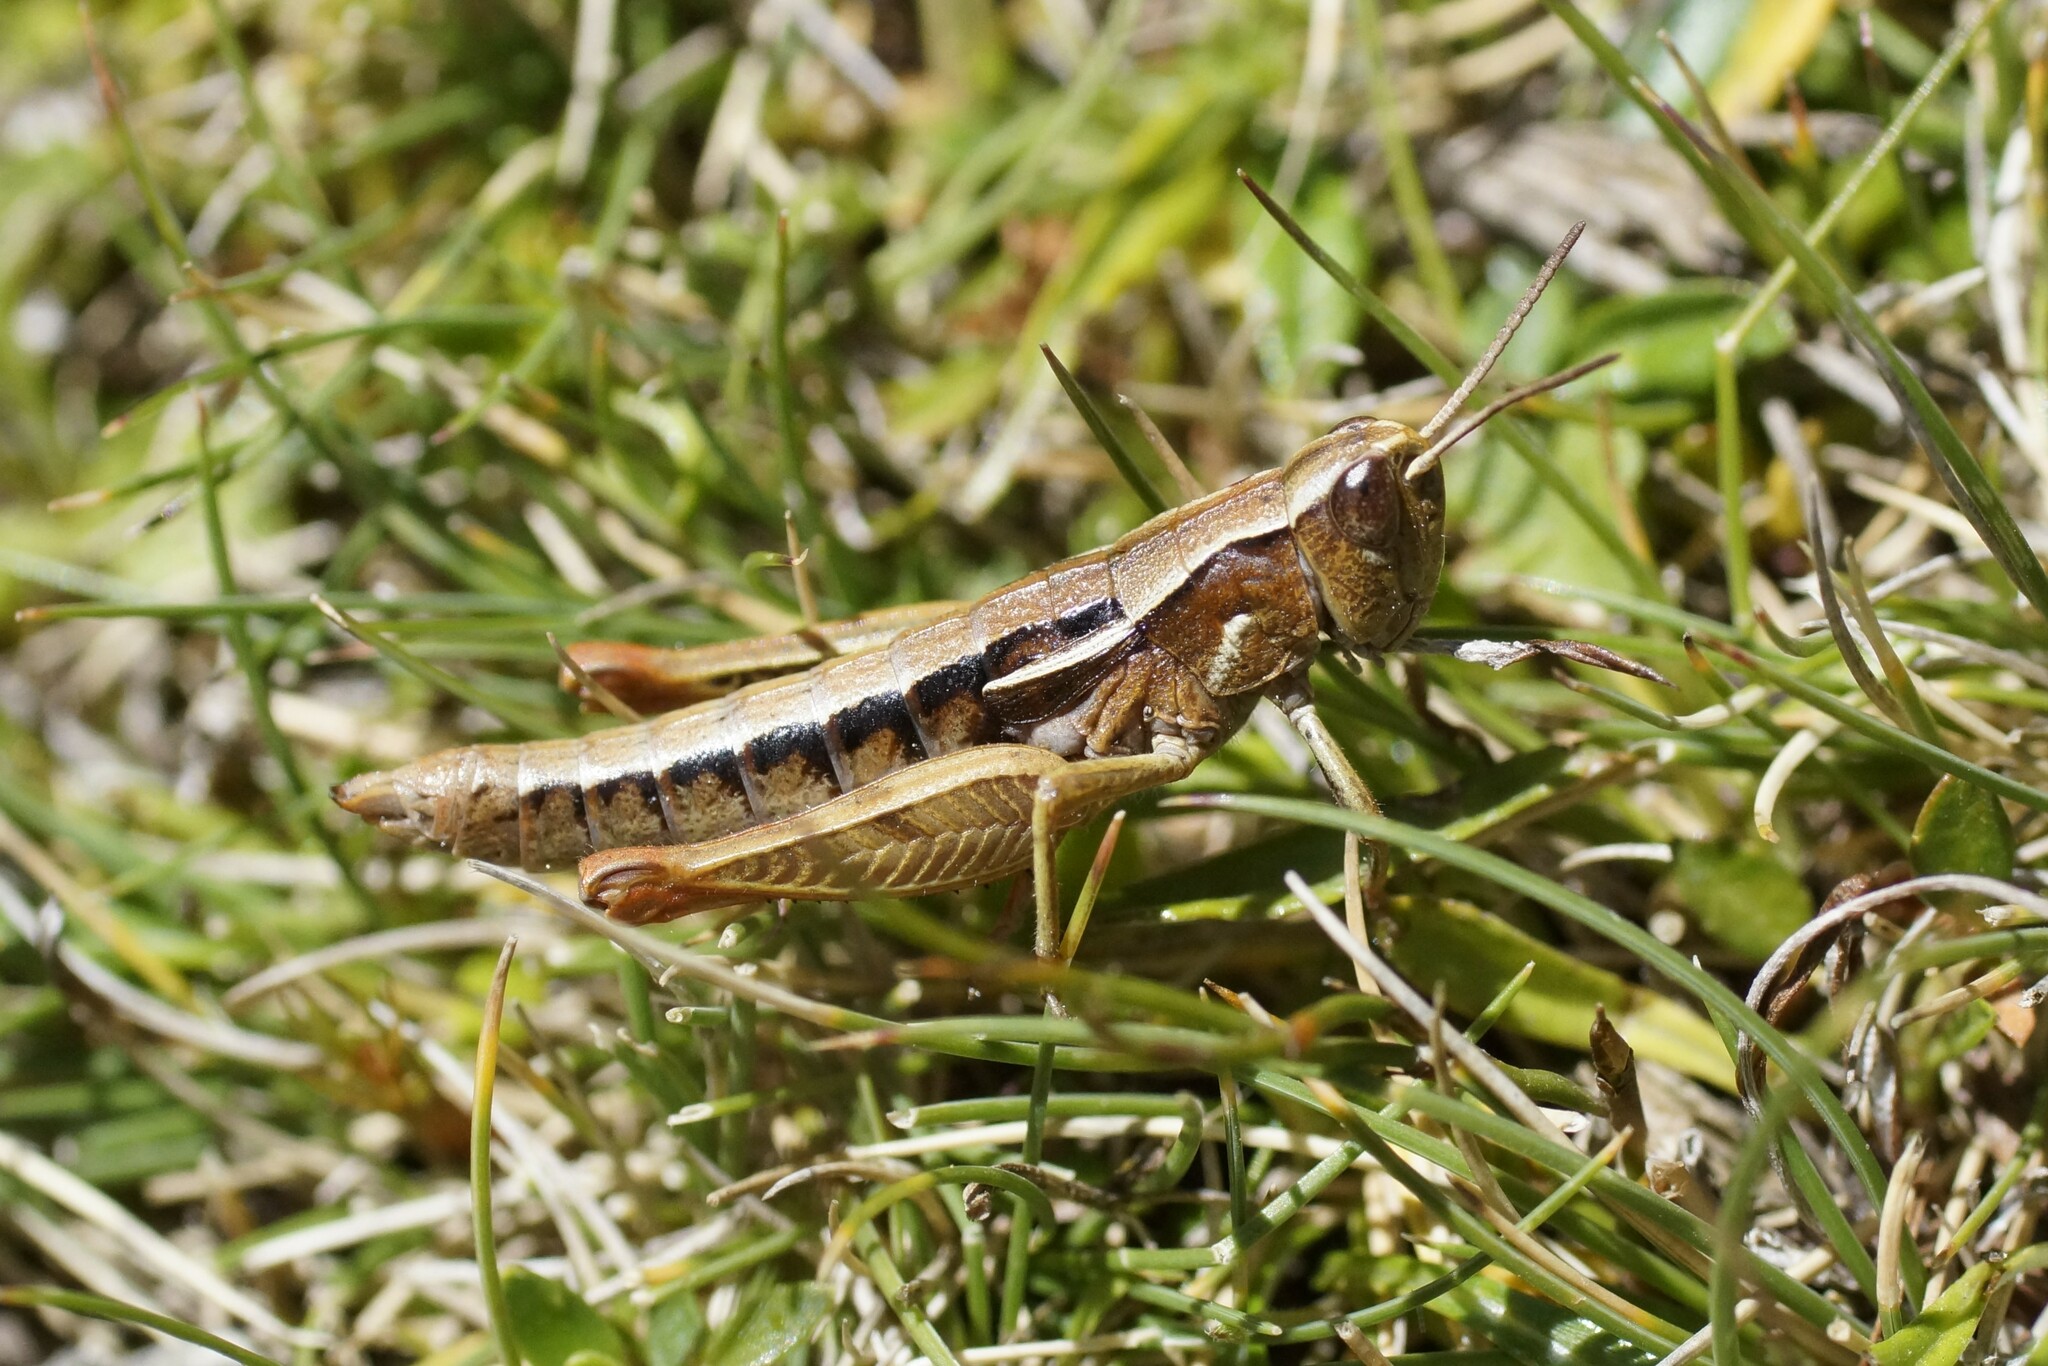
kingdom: Animalia
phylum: Arthropoda
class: Insecta
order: Orthoptera
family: Acrididae
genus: Russalpia
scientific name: Russalpia albertisi
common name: Tassie hopper
